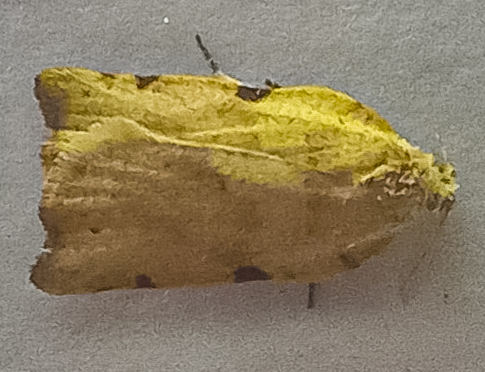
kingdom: Animalia
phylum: Arthropoda
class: Insecta
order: Lepidoptera
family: Tortricidae
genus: Apoctena
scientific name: Apoctena flavescens
